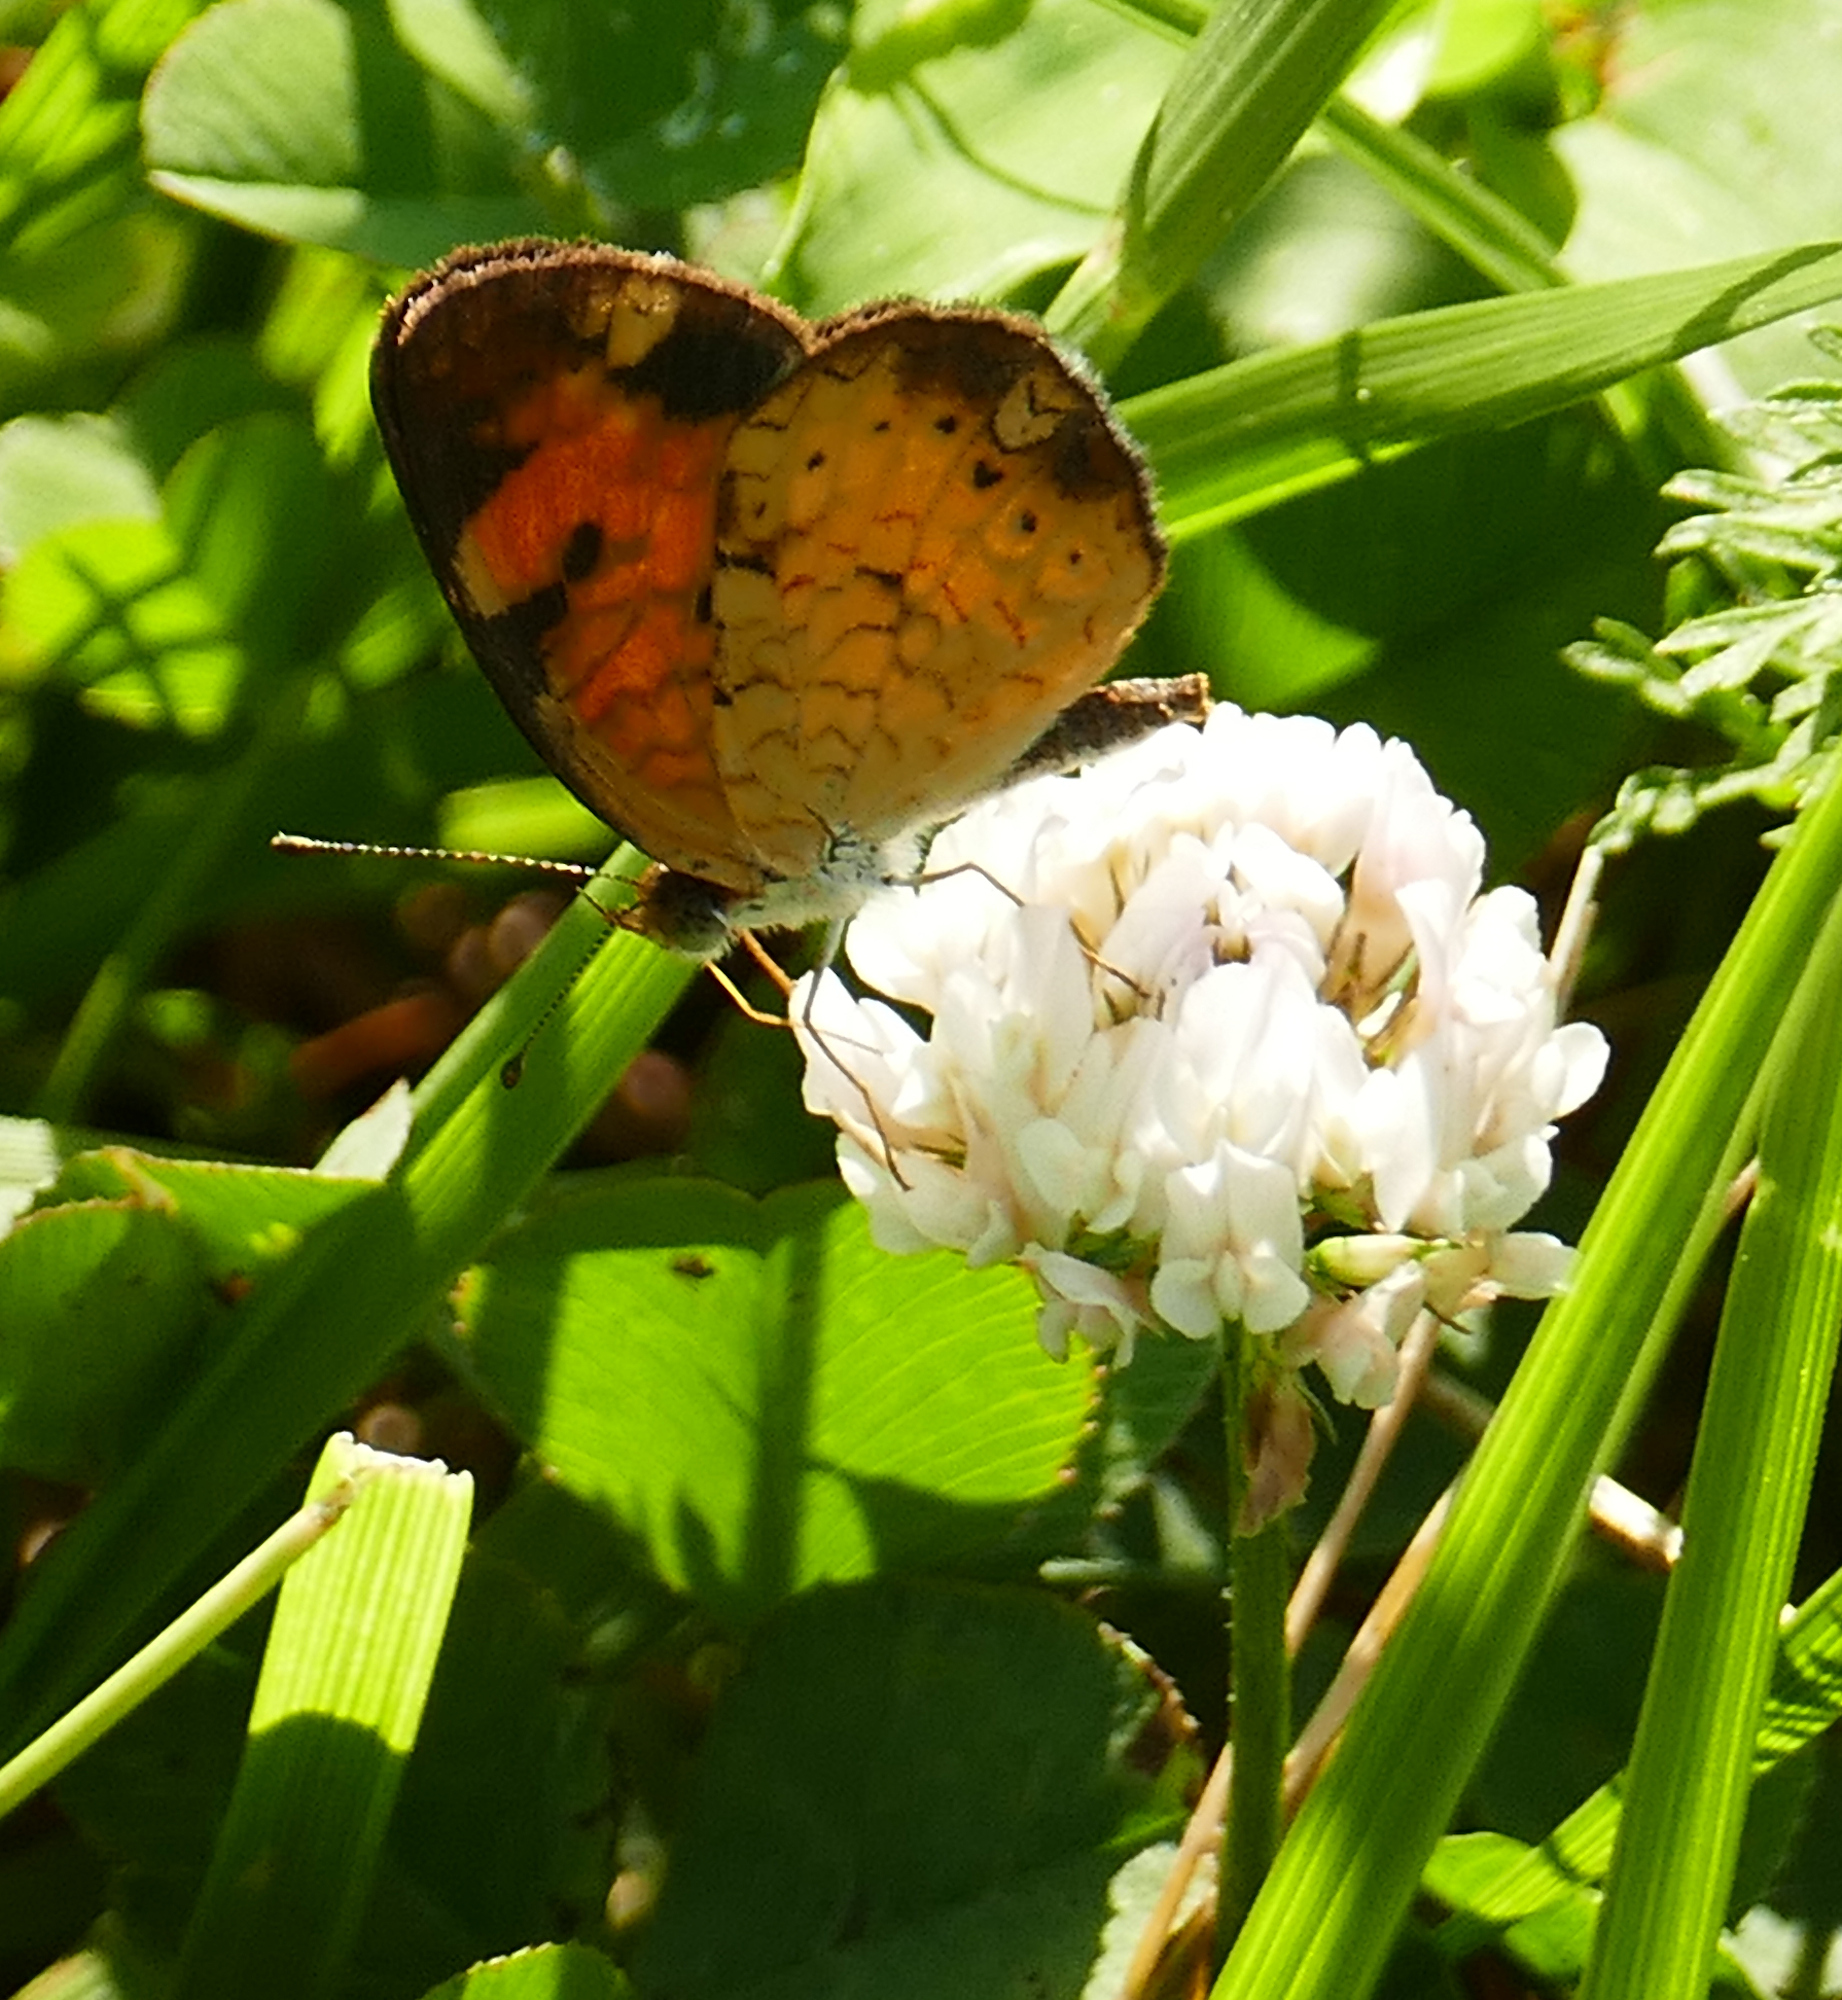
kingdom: Animalia
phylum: Arthropoda
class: Insecta
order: Lepidoptera
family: Nymphalidae
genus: Phyciodes
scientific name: Phyciodes tharos
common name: Pearl crescent
